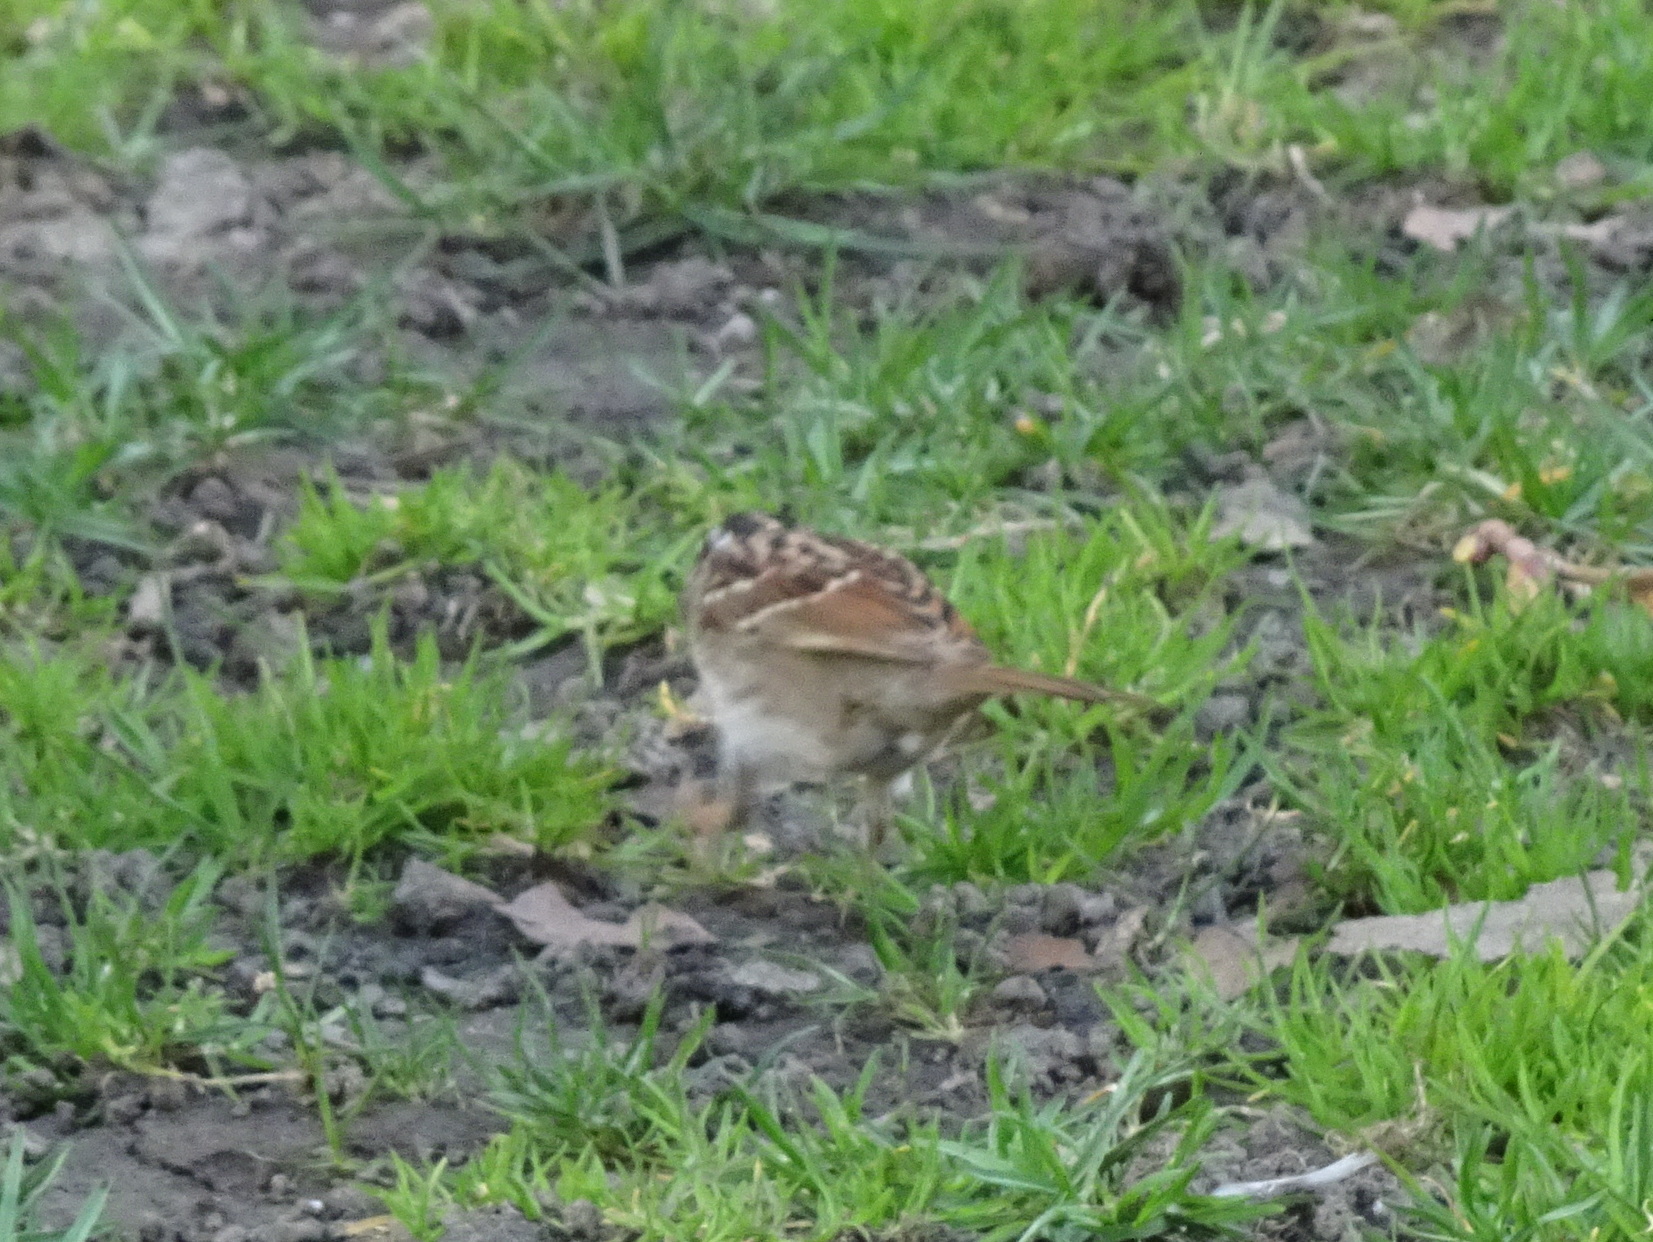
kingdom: Animalia
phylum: Chordata
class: Aves
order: Passeriformes
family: Passerellidae
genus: Zonotrichia
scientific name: Zonotrichia albicollis
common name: White-throated sparrow
